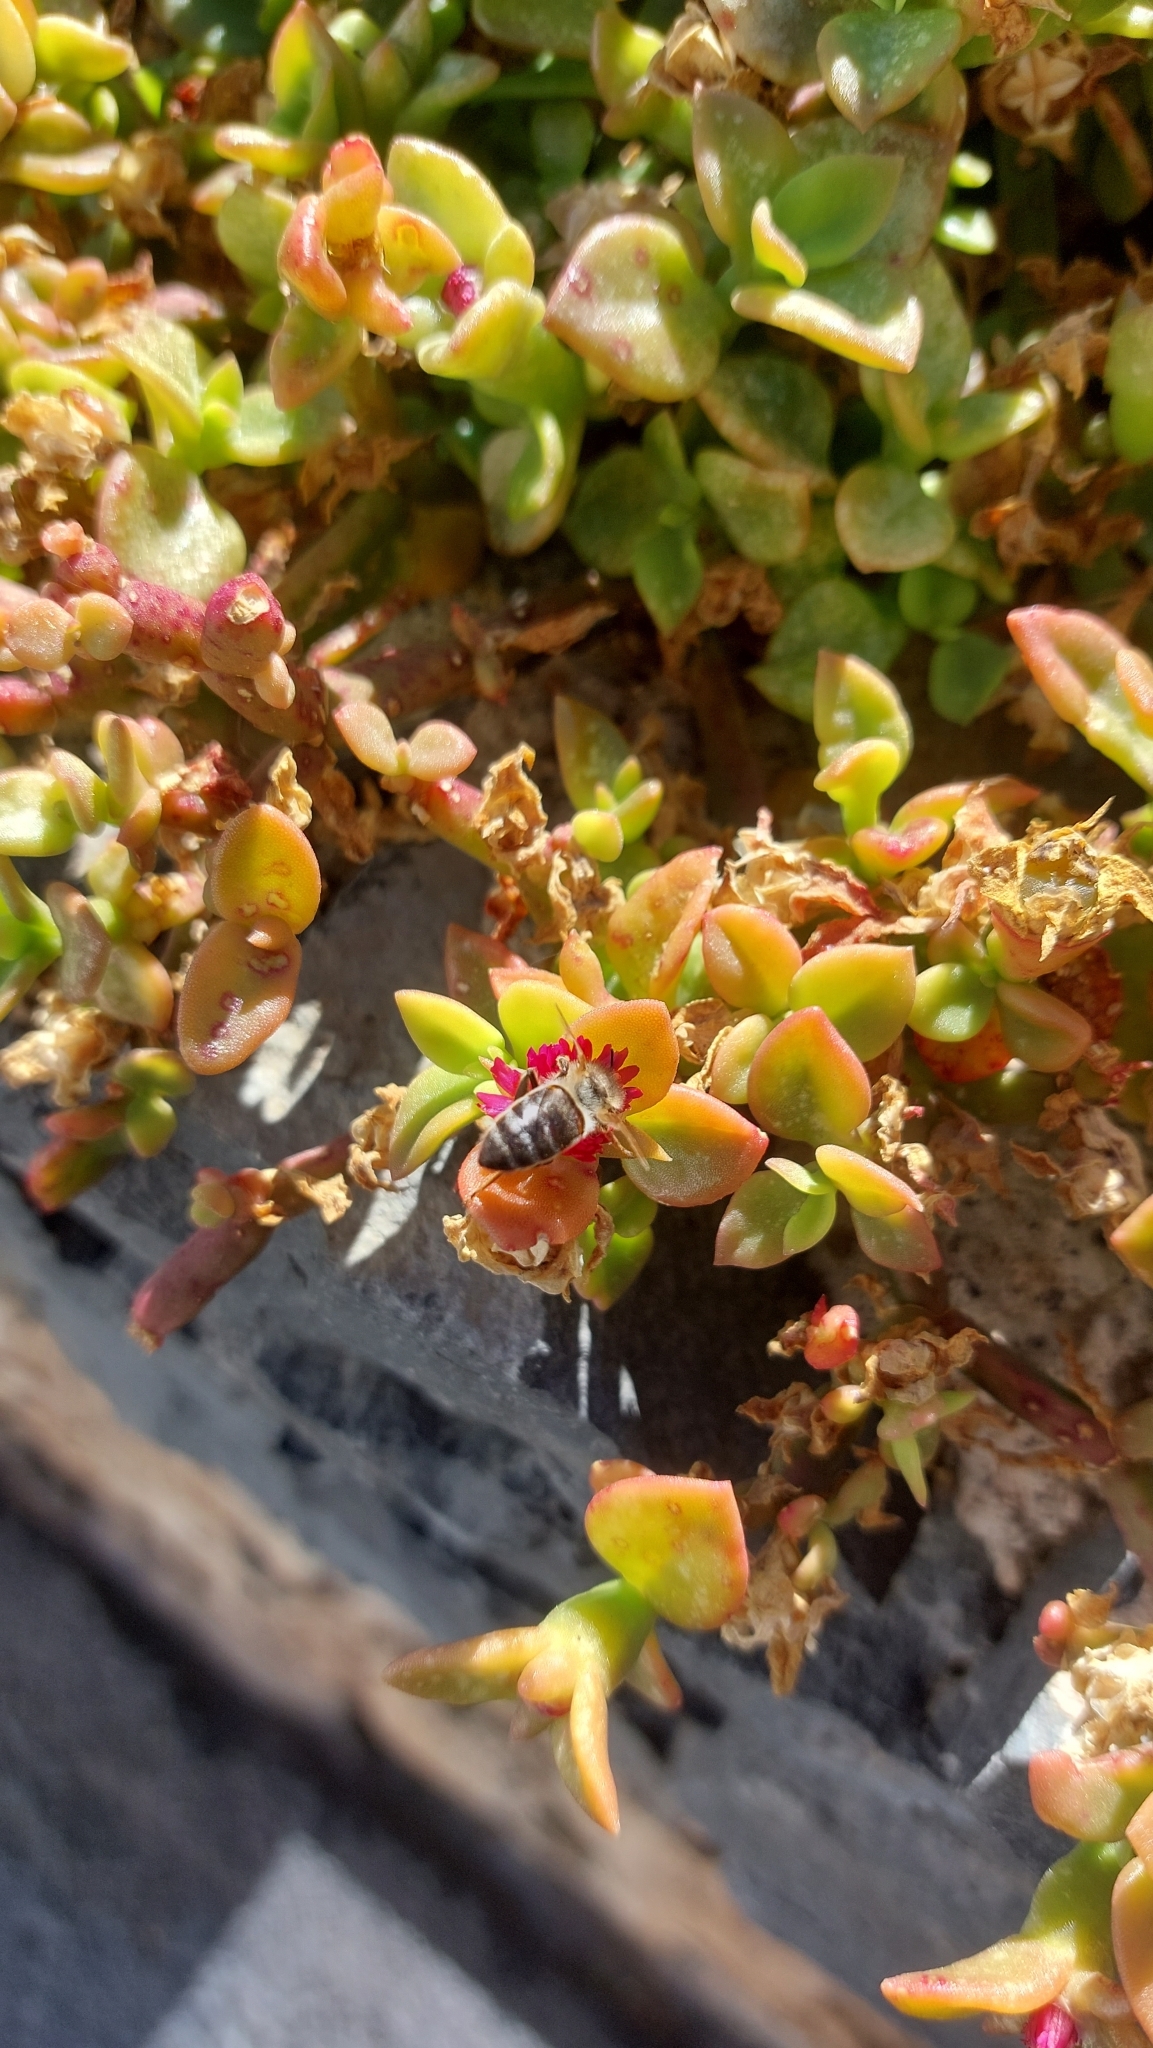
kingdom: Animalia
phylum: Arthropoda
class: Insecta
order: Hymenoptera
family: Apidae
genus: Apis
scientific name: Apis mellifera
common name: Honey bee
